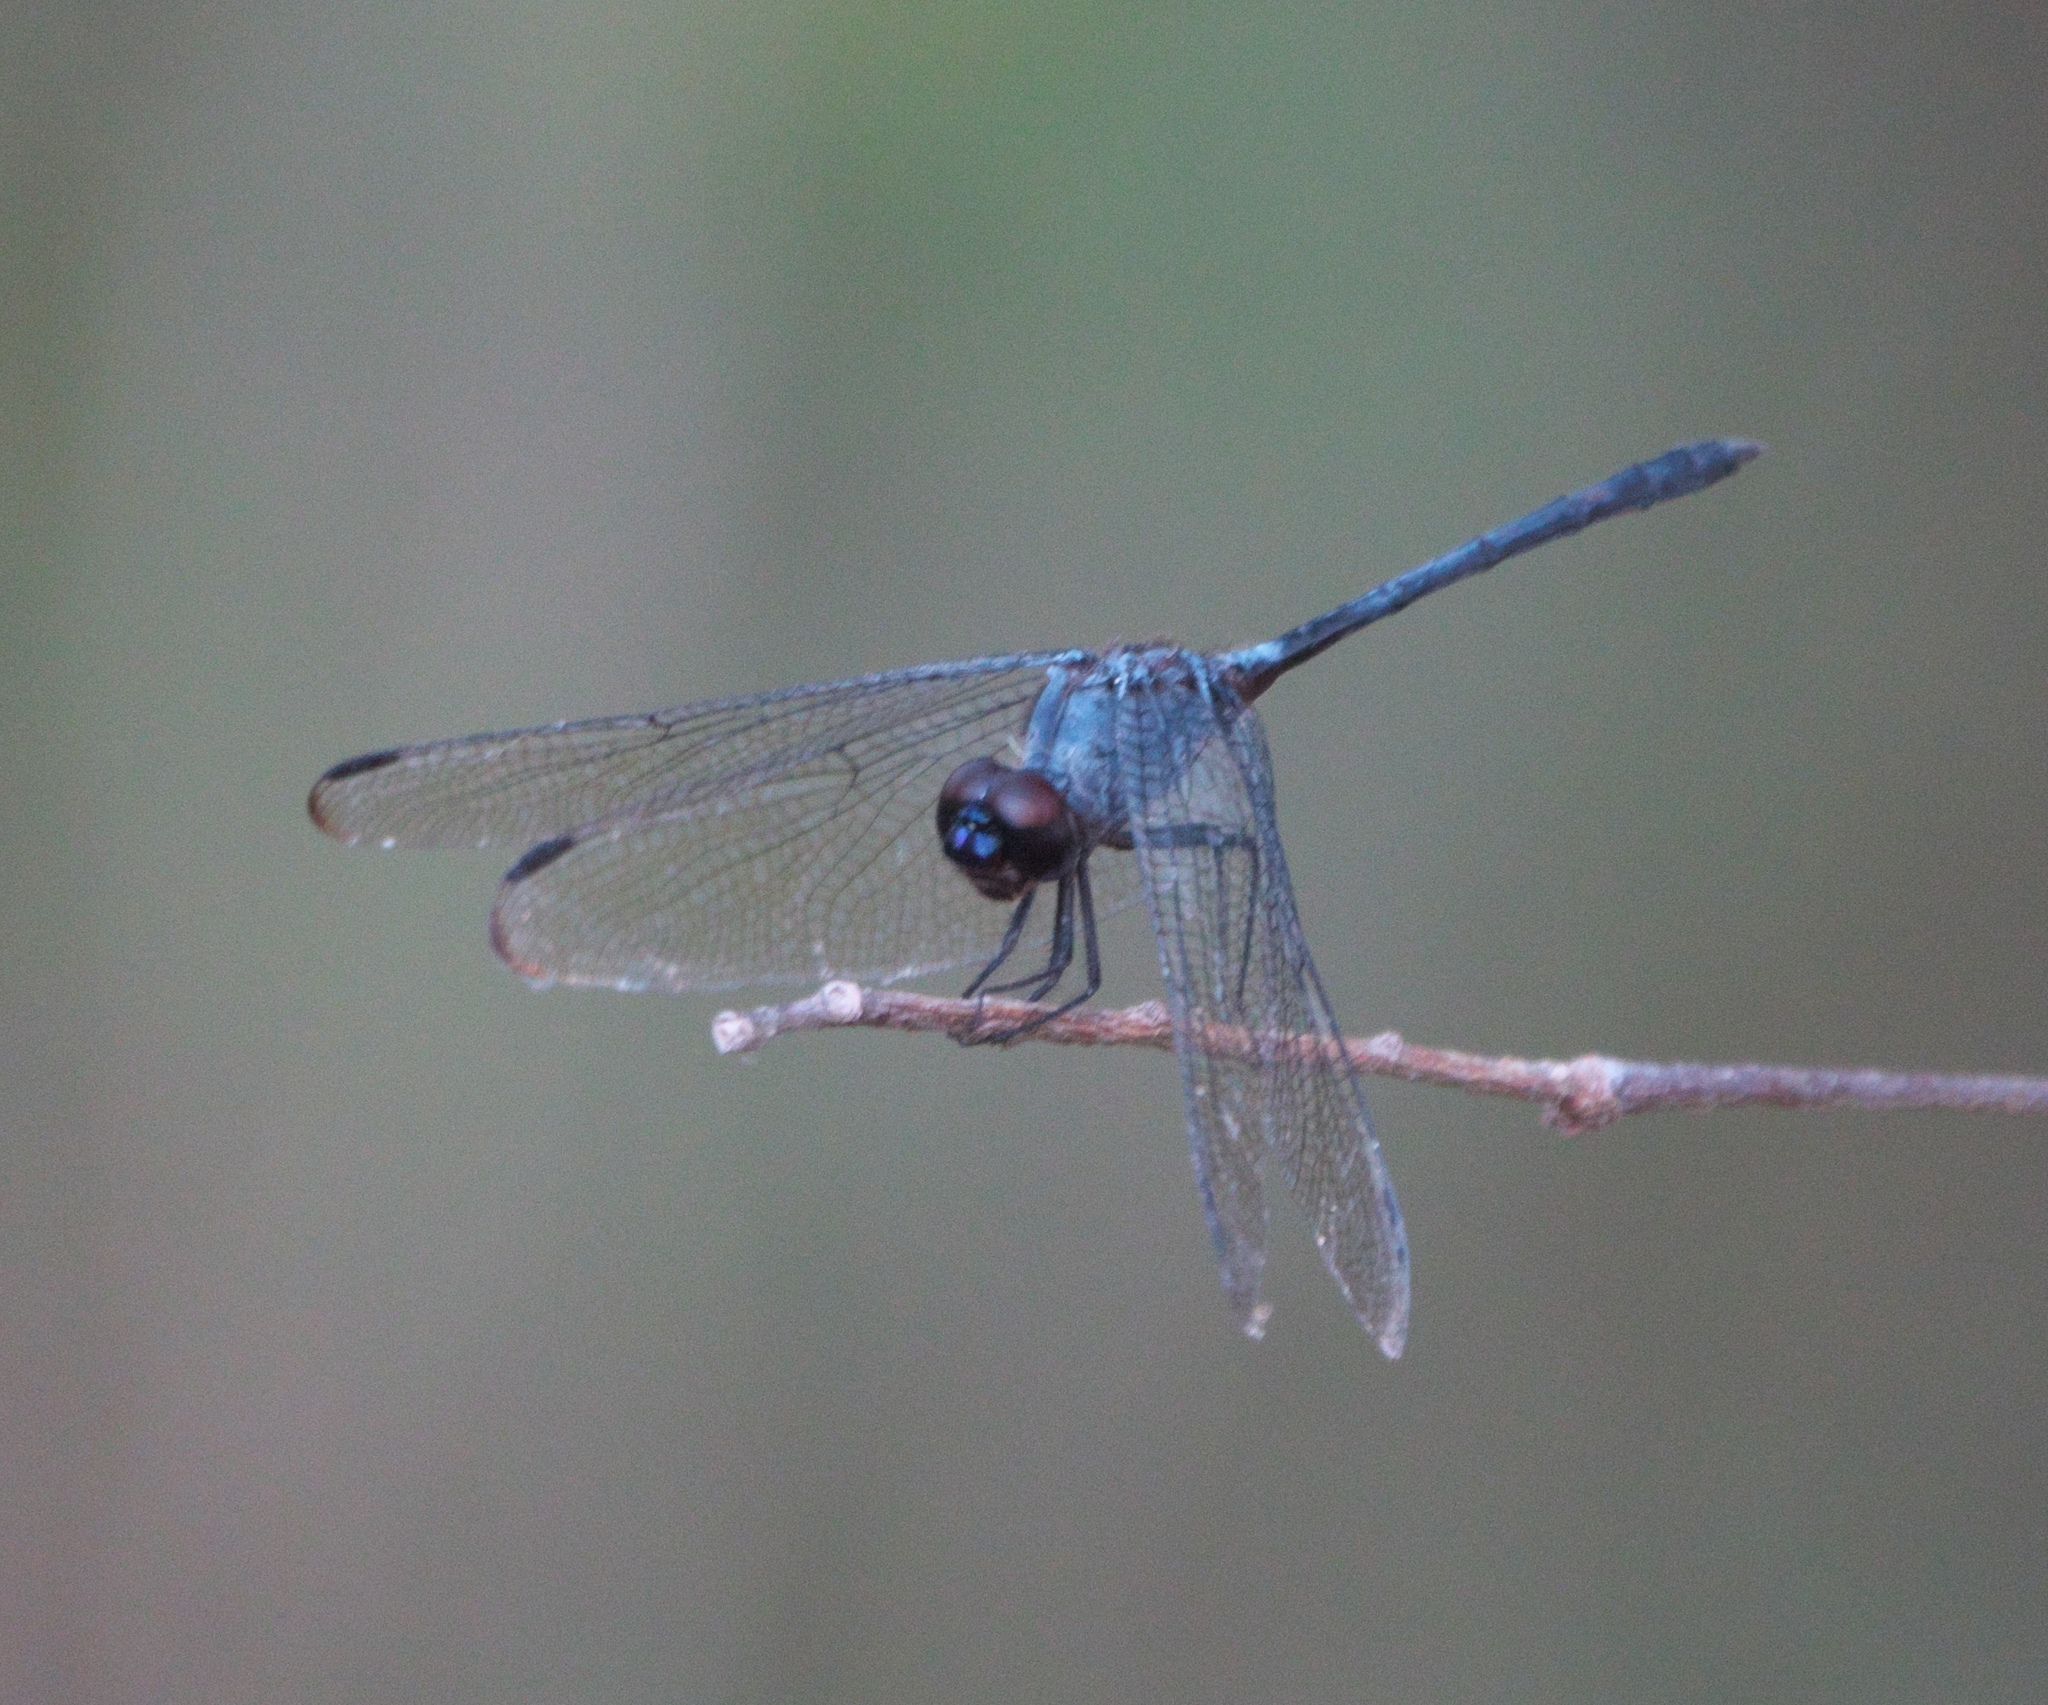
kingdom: Animalia
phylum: Arthropoda
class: Insecta
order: Odonata
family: Libellulidae
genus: Dythemis
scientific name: Dythemis nigrescens
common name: Black setwing
